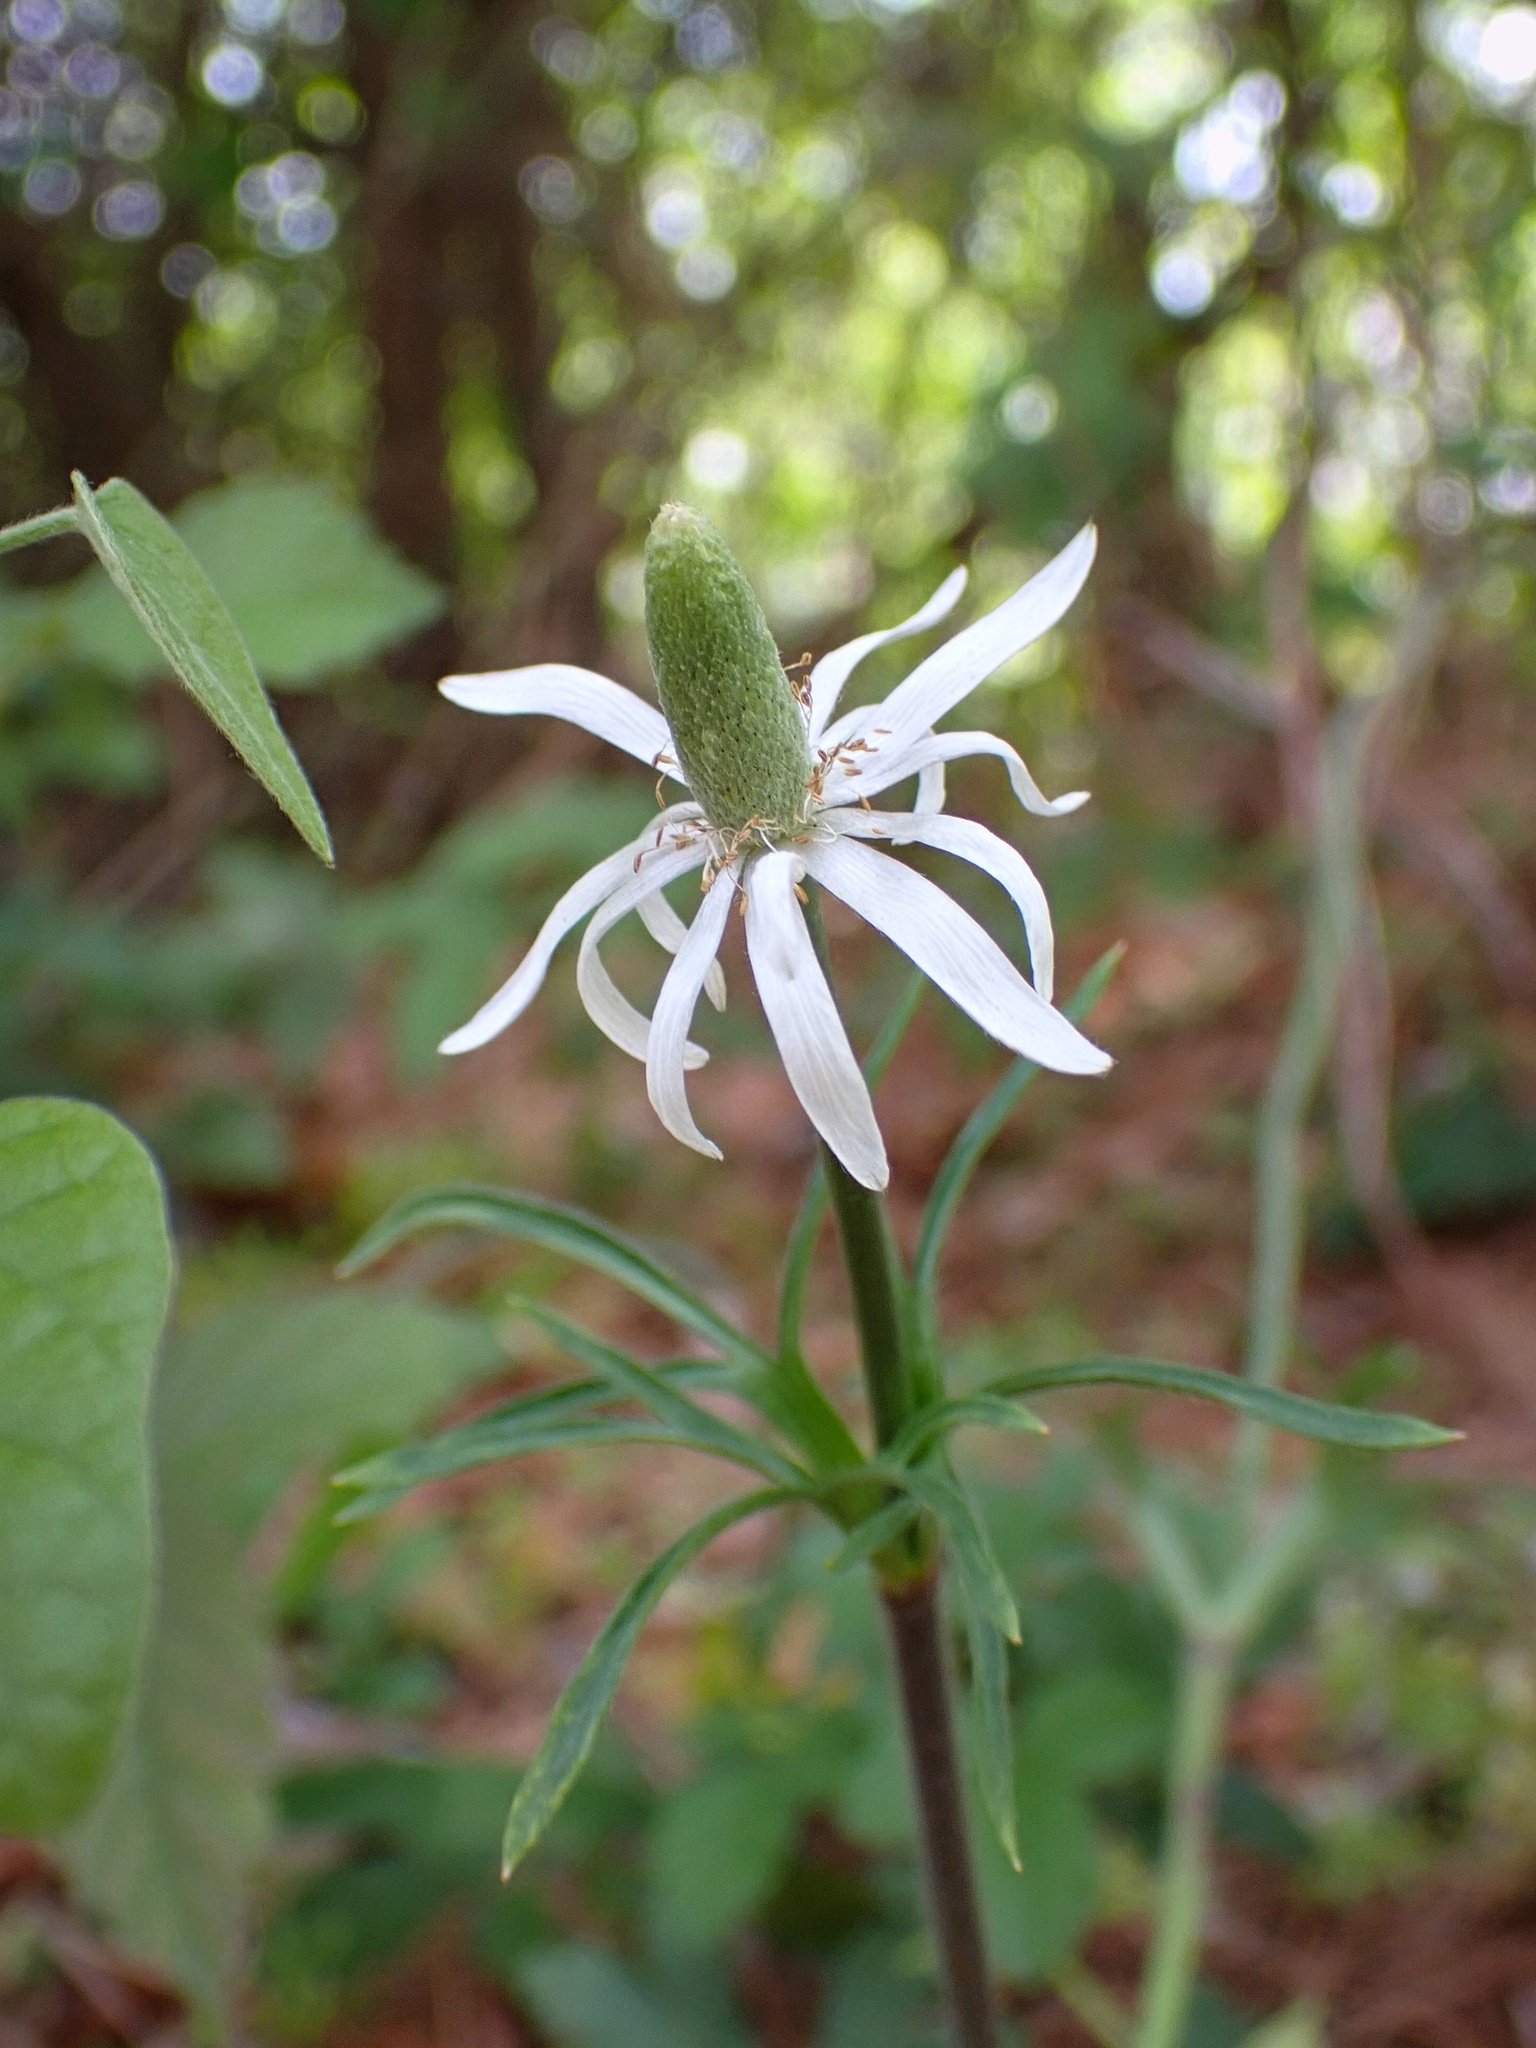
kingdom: Plantae
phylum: Tracheophyta
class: Magnoliopsida
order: Ranunculales
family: Ranunculaceae
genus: Anemone
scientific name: Anemone berlandieri
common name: Ten-petal anemone
